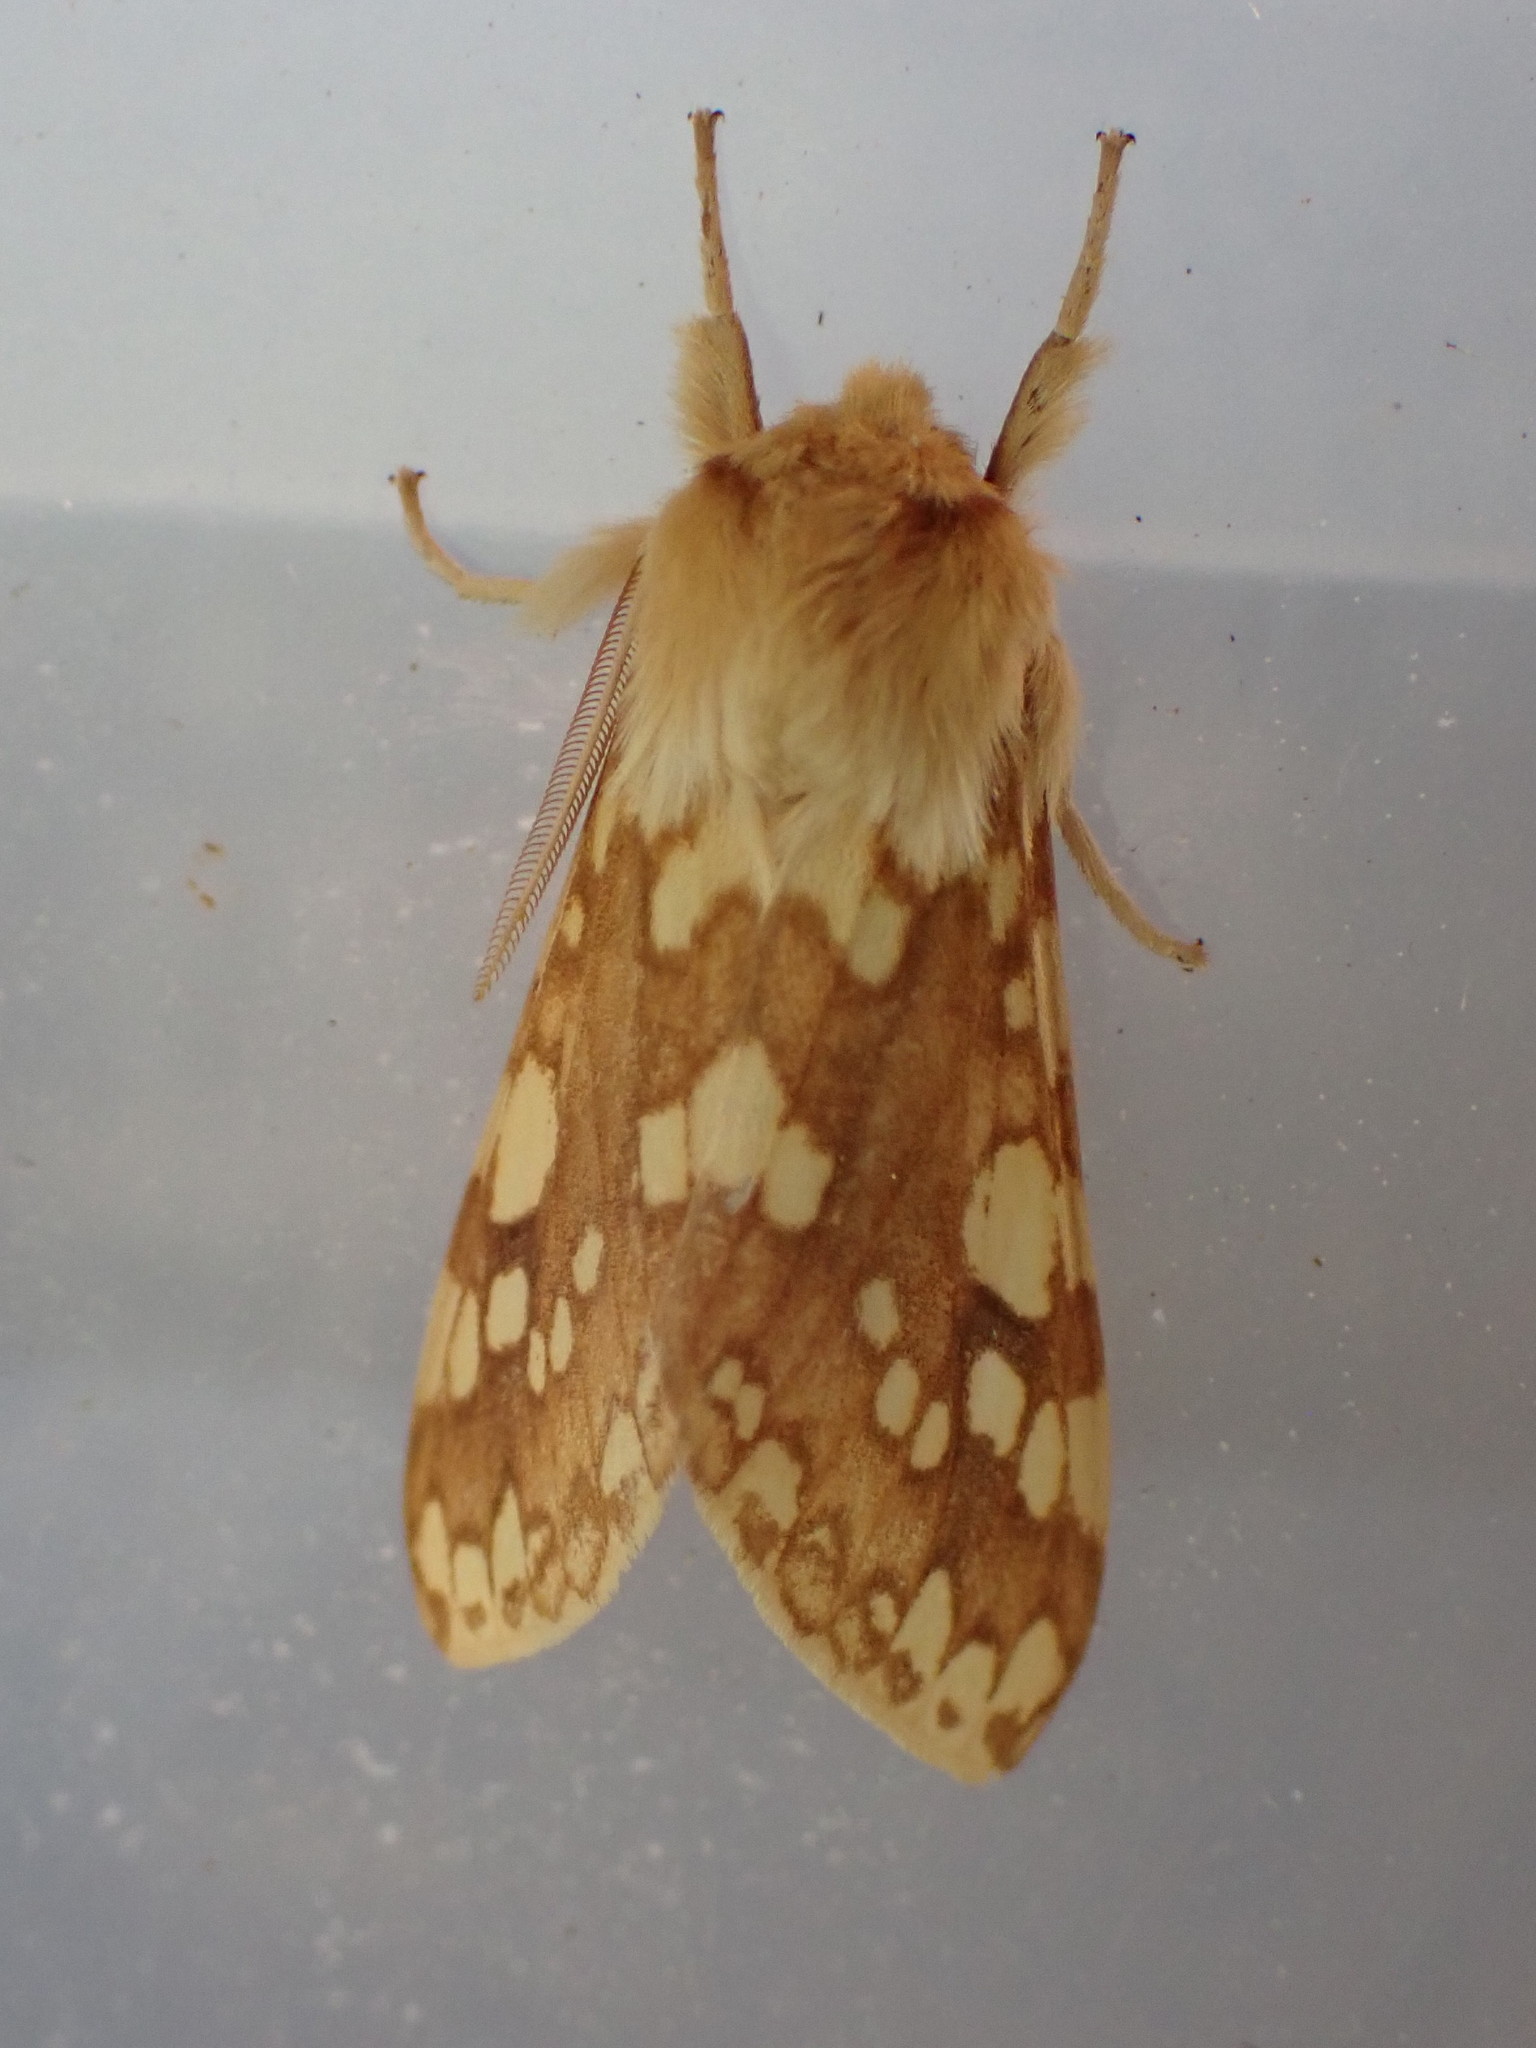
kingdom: Animalia
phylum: Arthropoda
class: Insecta
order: Lepidoptera
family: Erebidae
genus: Lophocampa
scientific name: Lophocampa maculata
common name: Spotted tussock moth
